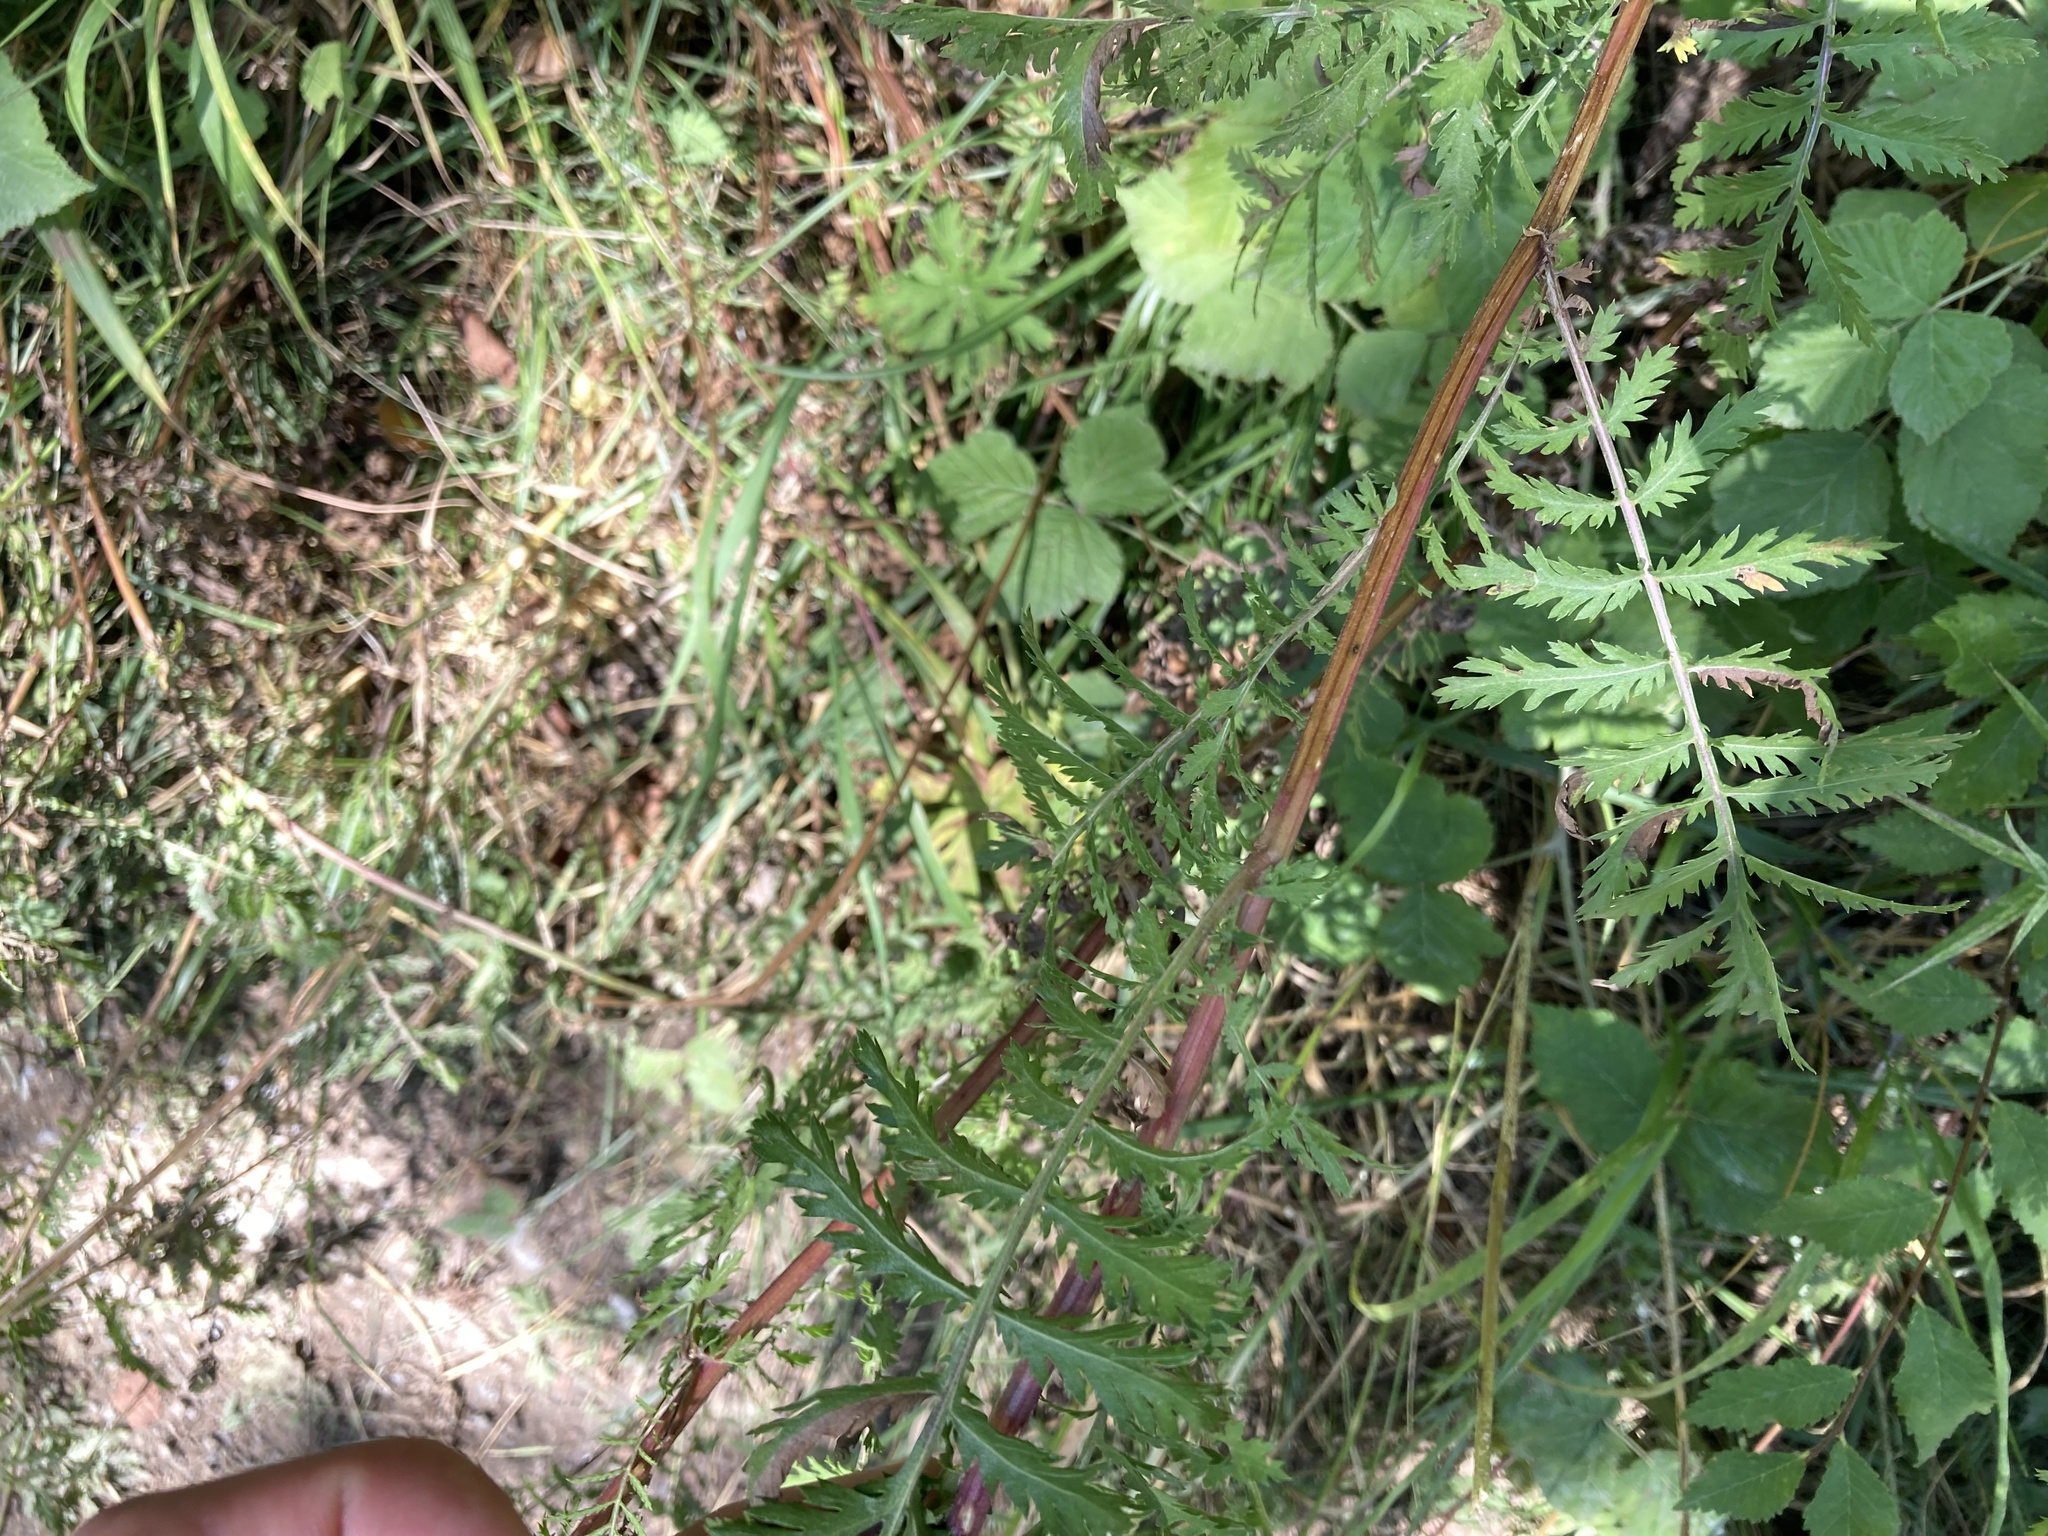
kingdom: Plantae
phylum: Tracheophyta
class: Magnoliopsida
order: Asterales
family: Asteraceae
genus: Tanacetum
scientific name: Tanacetum vulgare
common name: Common tansy
